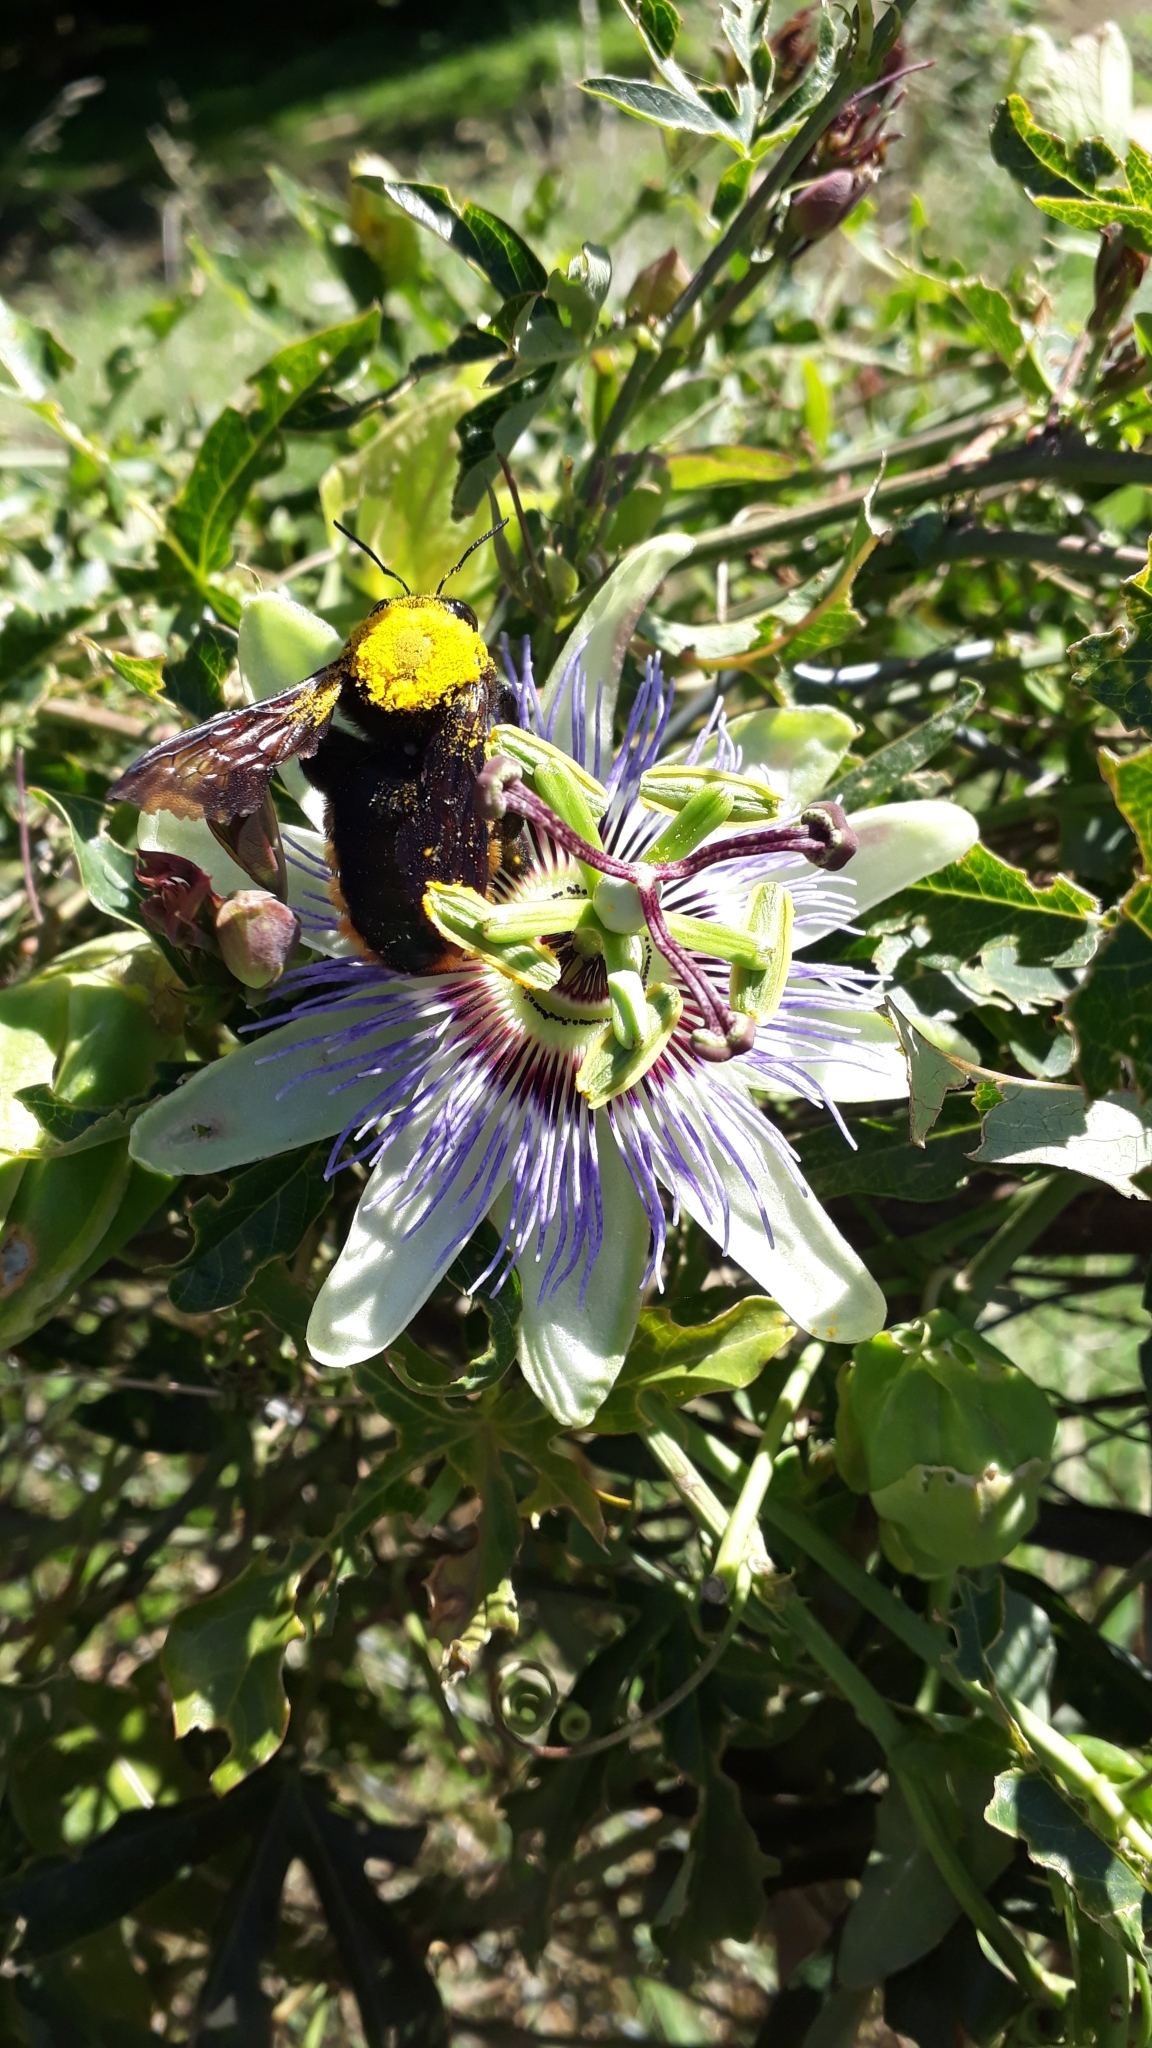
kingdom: Animalia
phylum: Arthropoda
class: Insecta
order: Hymenoptera
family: Apidae
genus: Xylocopa
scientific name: Xylocopa augusti
